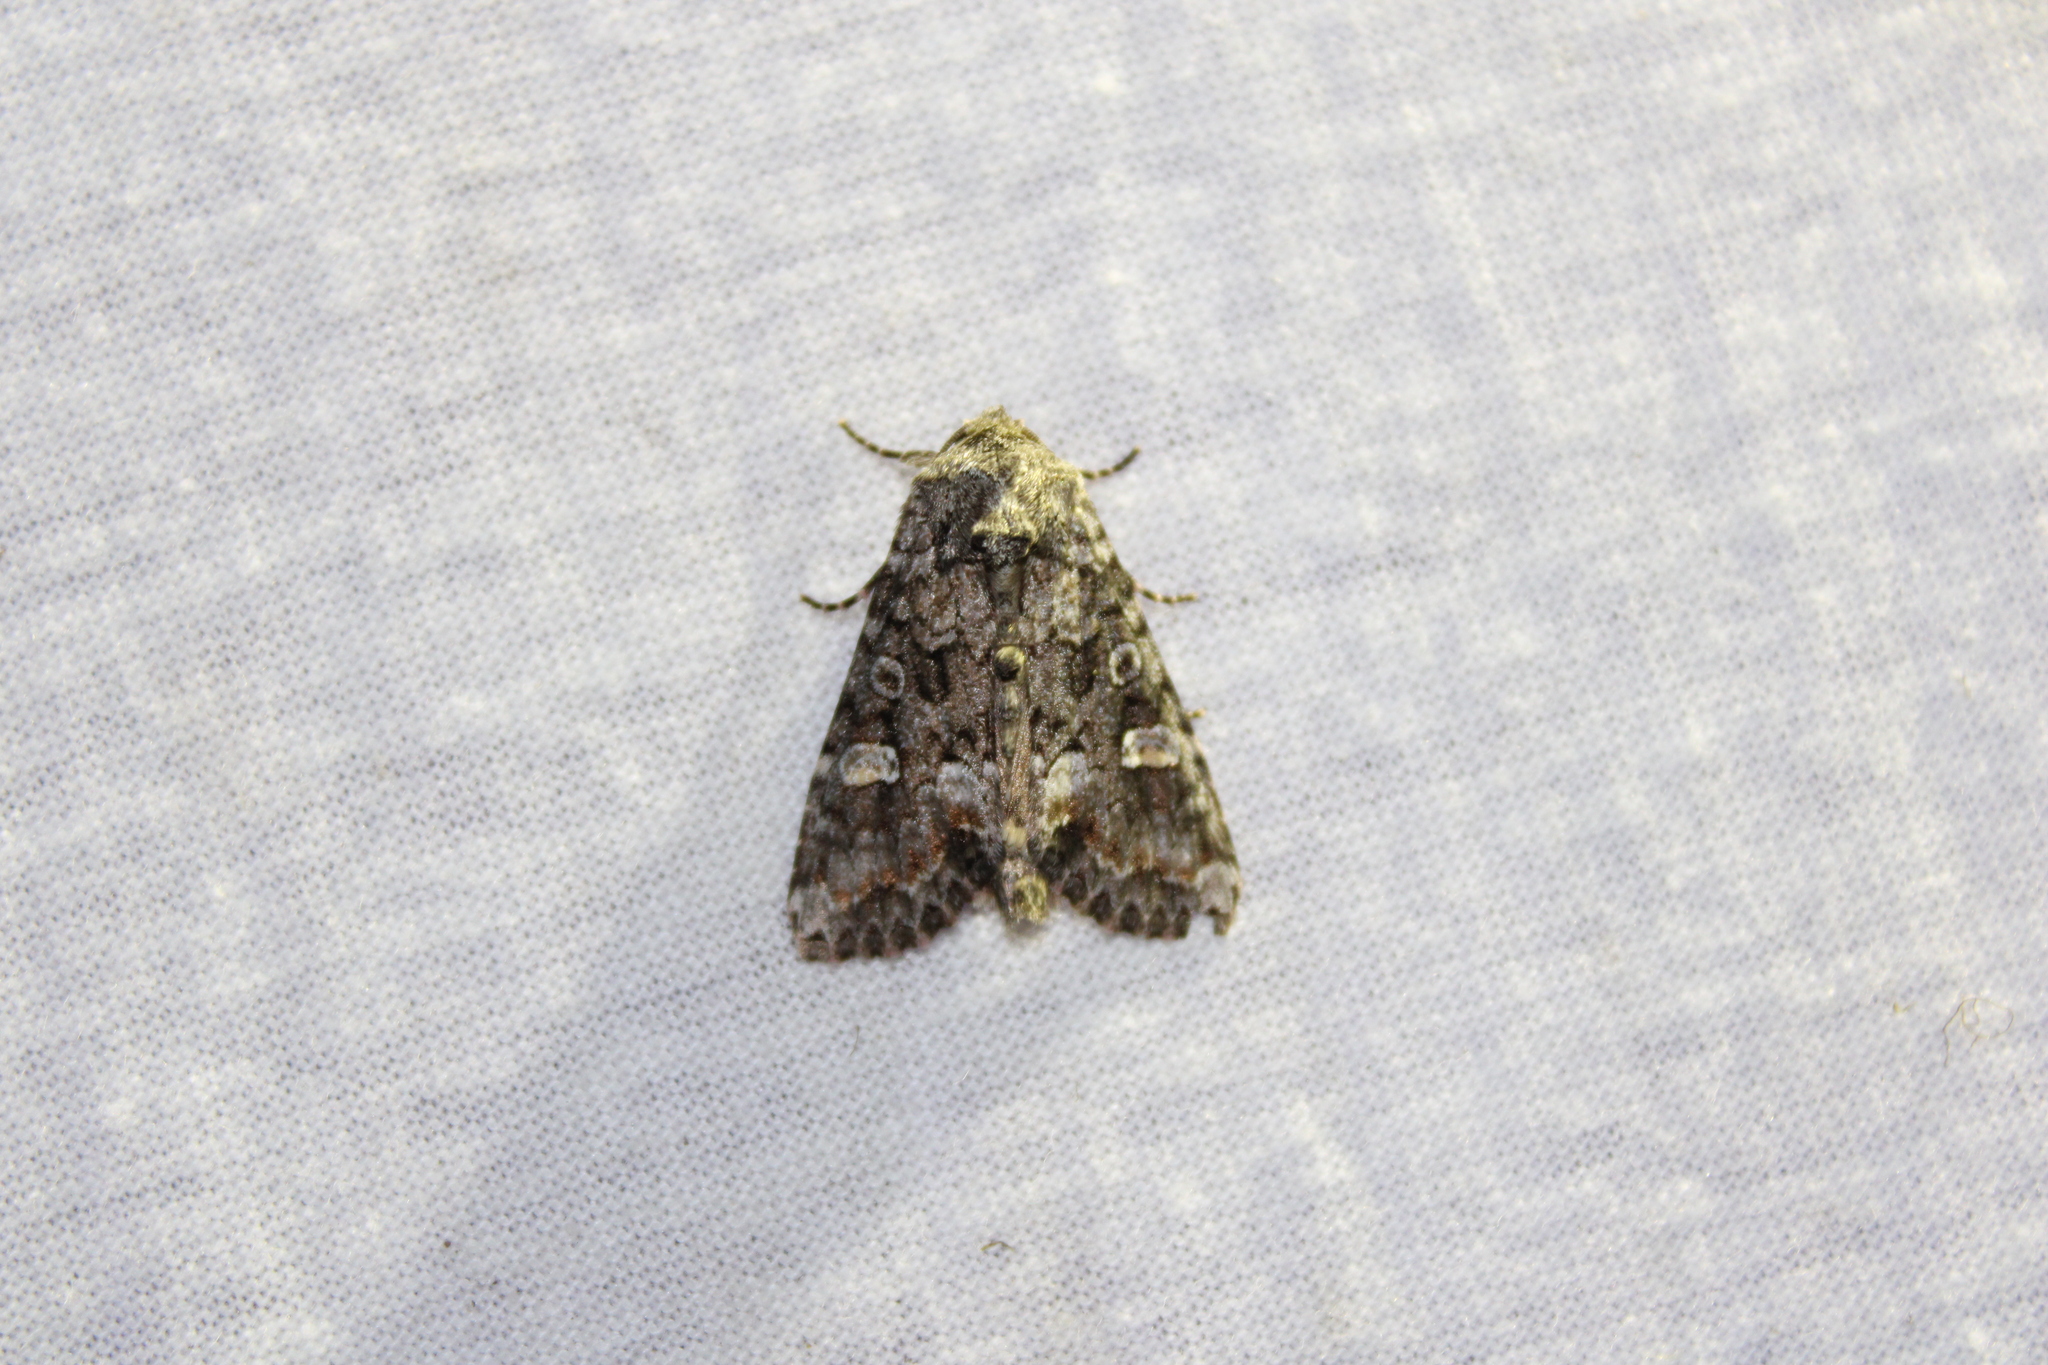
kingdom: Animalia
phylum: Arthropoda
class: Insecta
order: Lepidoptera
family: Noctuidae
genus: Spiramater
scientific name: Spiramater lutra
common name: Otter spiramater moth
